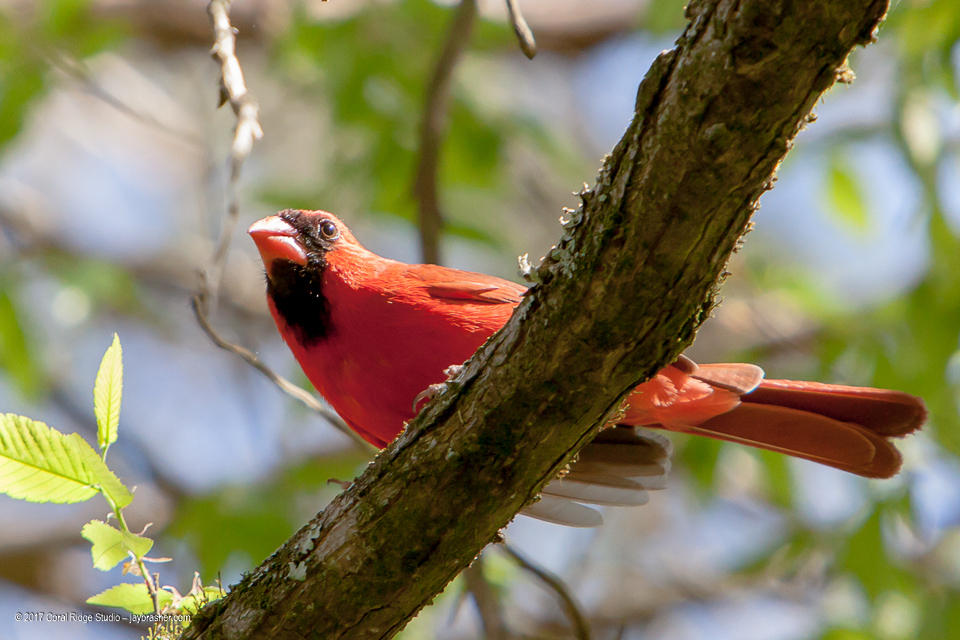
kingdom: Animalia
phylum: Chordata
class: Aves
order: Passeriformes
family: Cardinalidae
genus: Cardinalis
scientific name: Cardinalis cardinalis
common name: Northern cardinal
